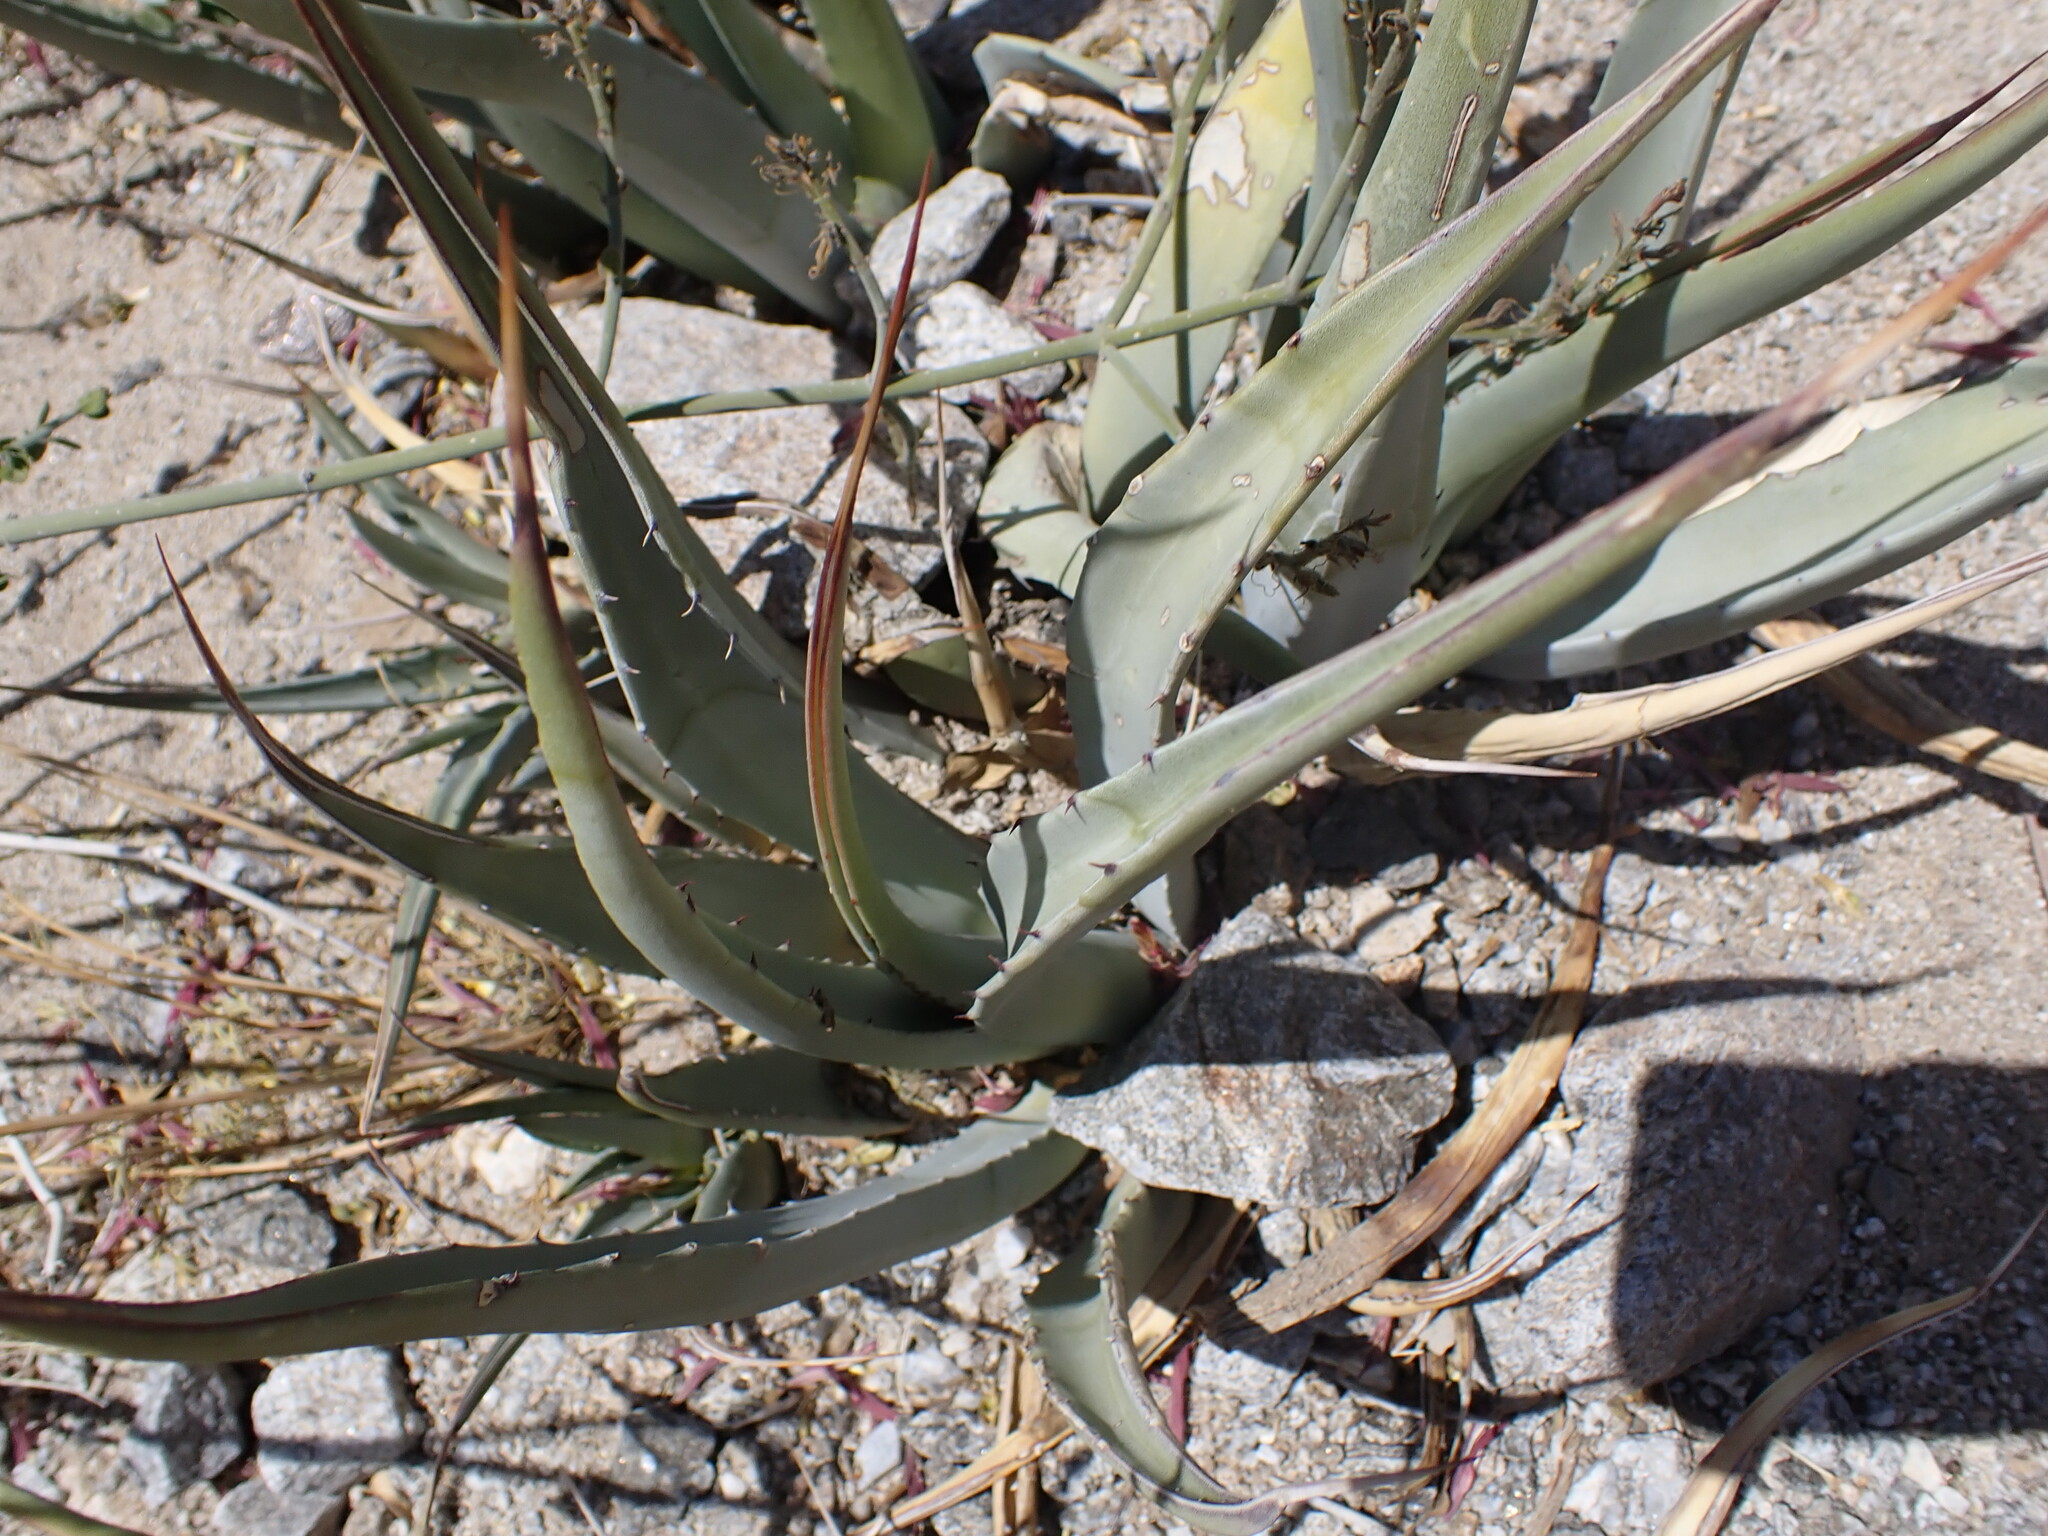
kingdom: Plantae
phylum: Tracheophyta
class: Liliopsida
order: Asparagales
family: Asparagaceae
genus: Agave
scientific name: Agave deserti
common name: Desert agave
